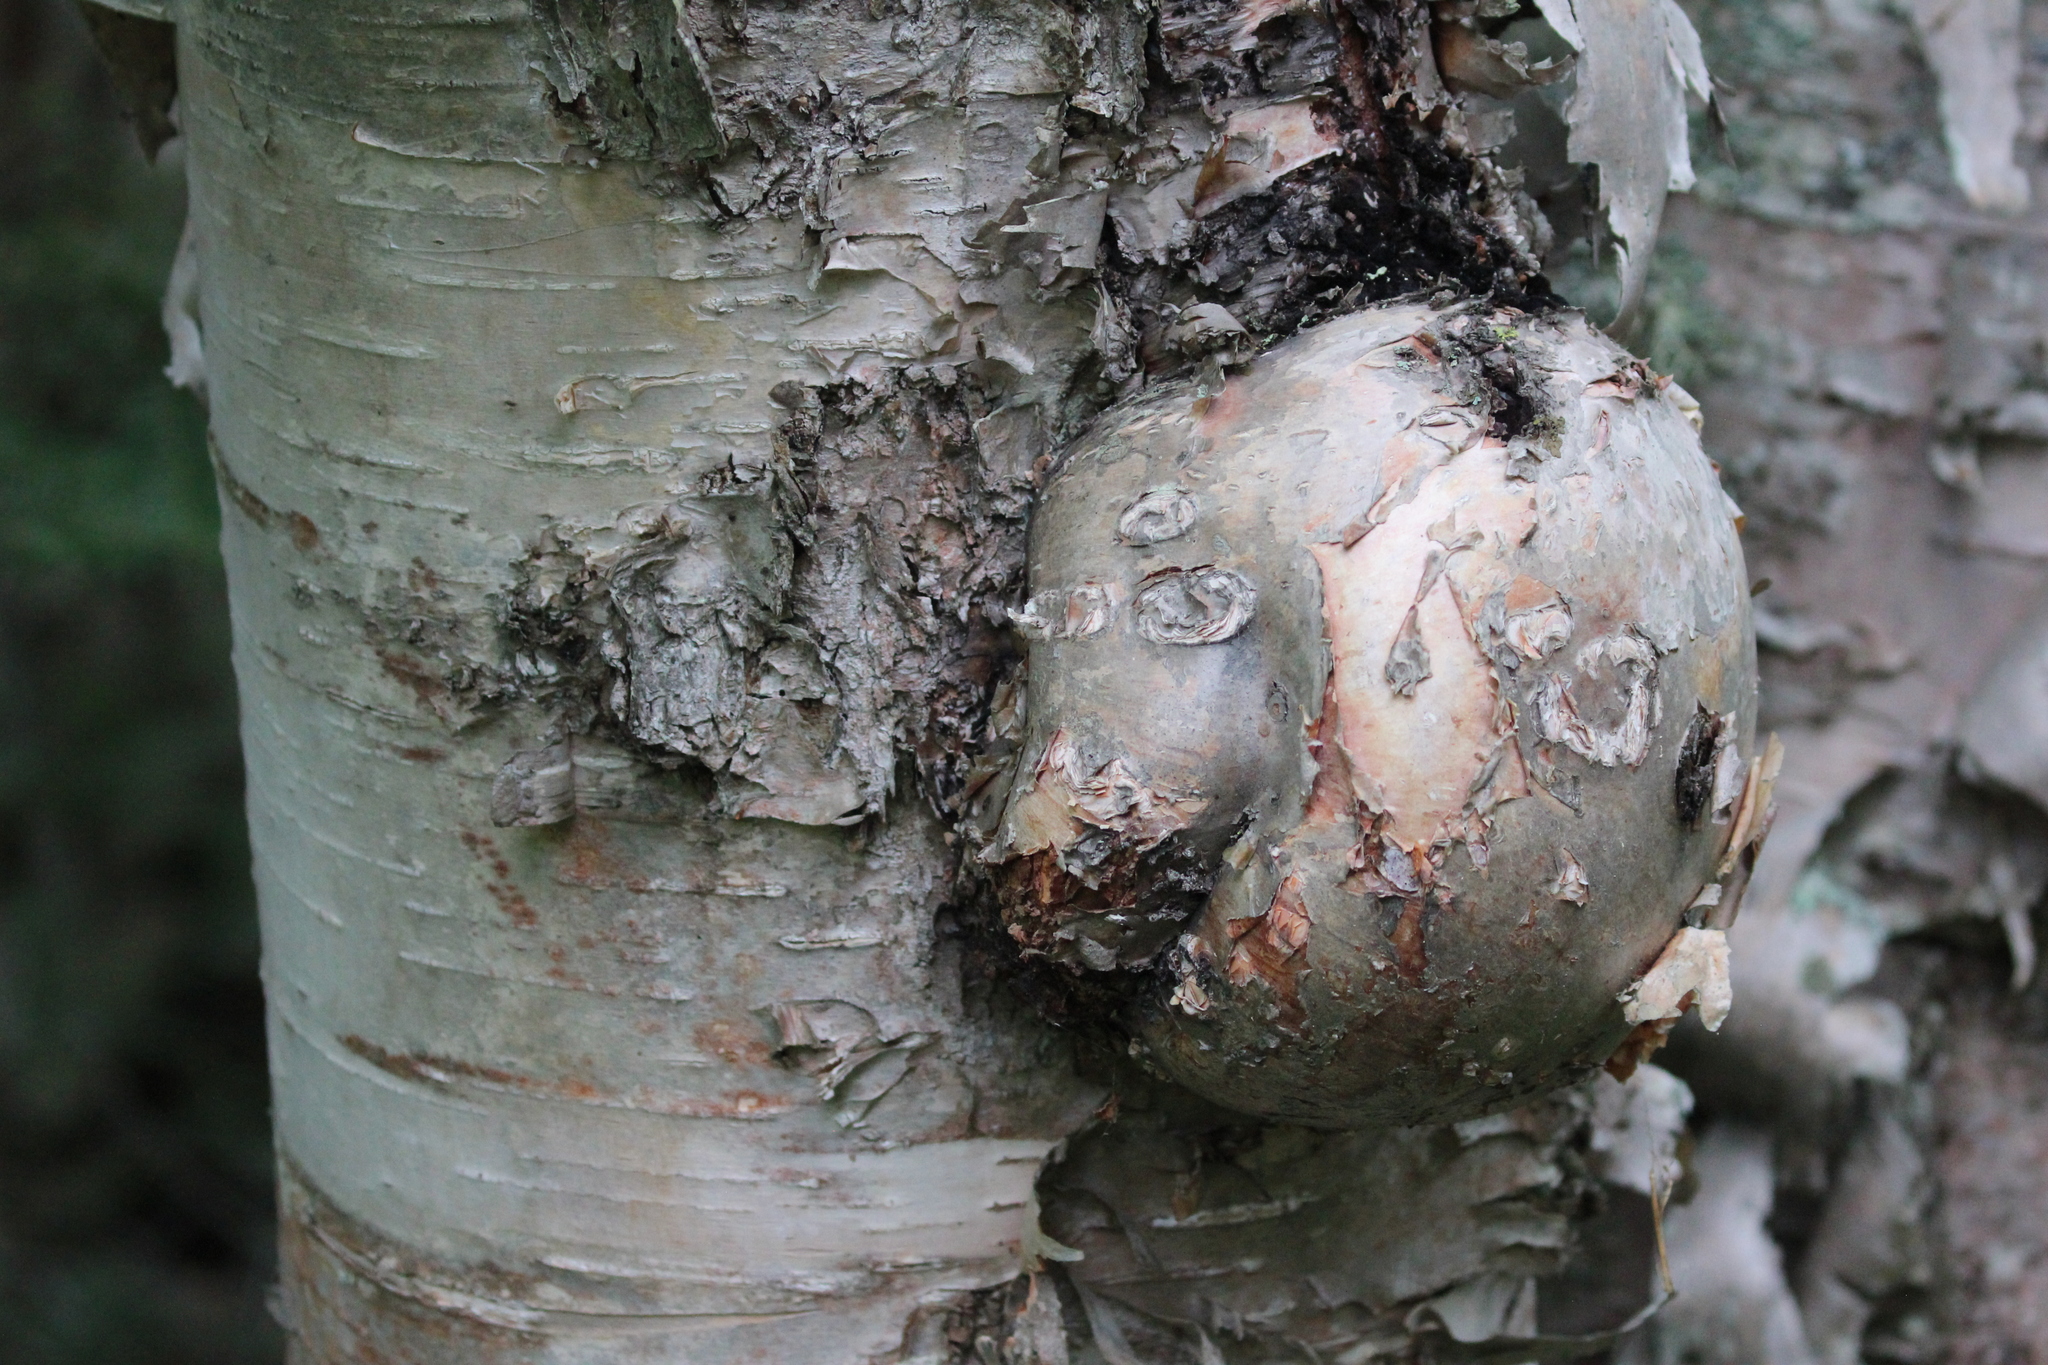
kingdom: Plantae
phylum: Tracheophyta
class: Magnoliopsida
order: Fagales
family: Betulaceae
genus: Betula
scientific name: Betula papyrifera
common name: Paper birch
